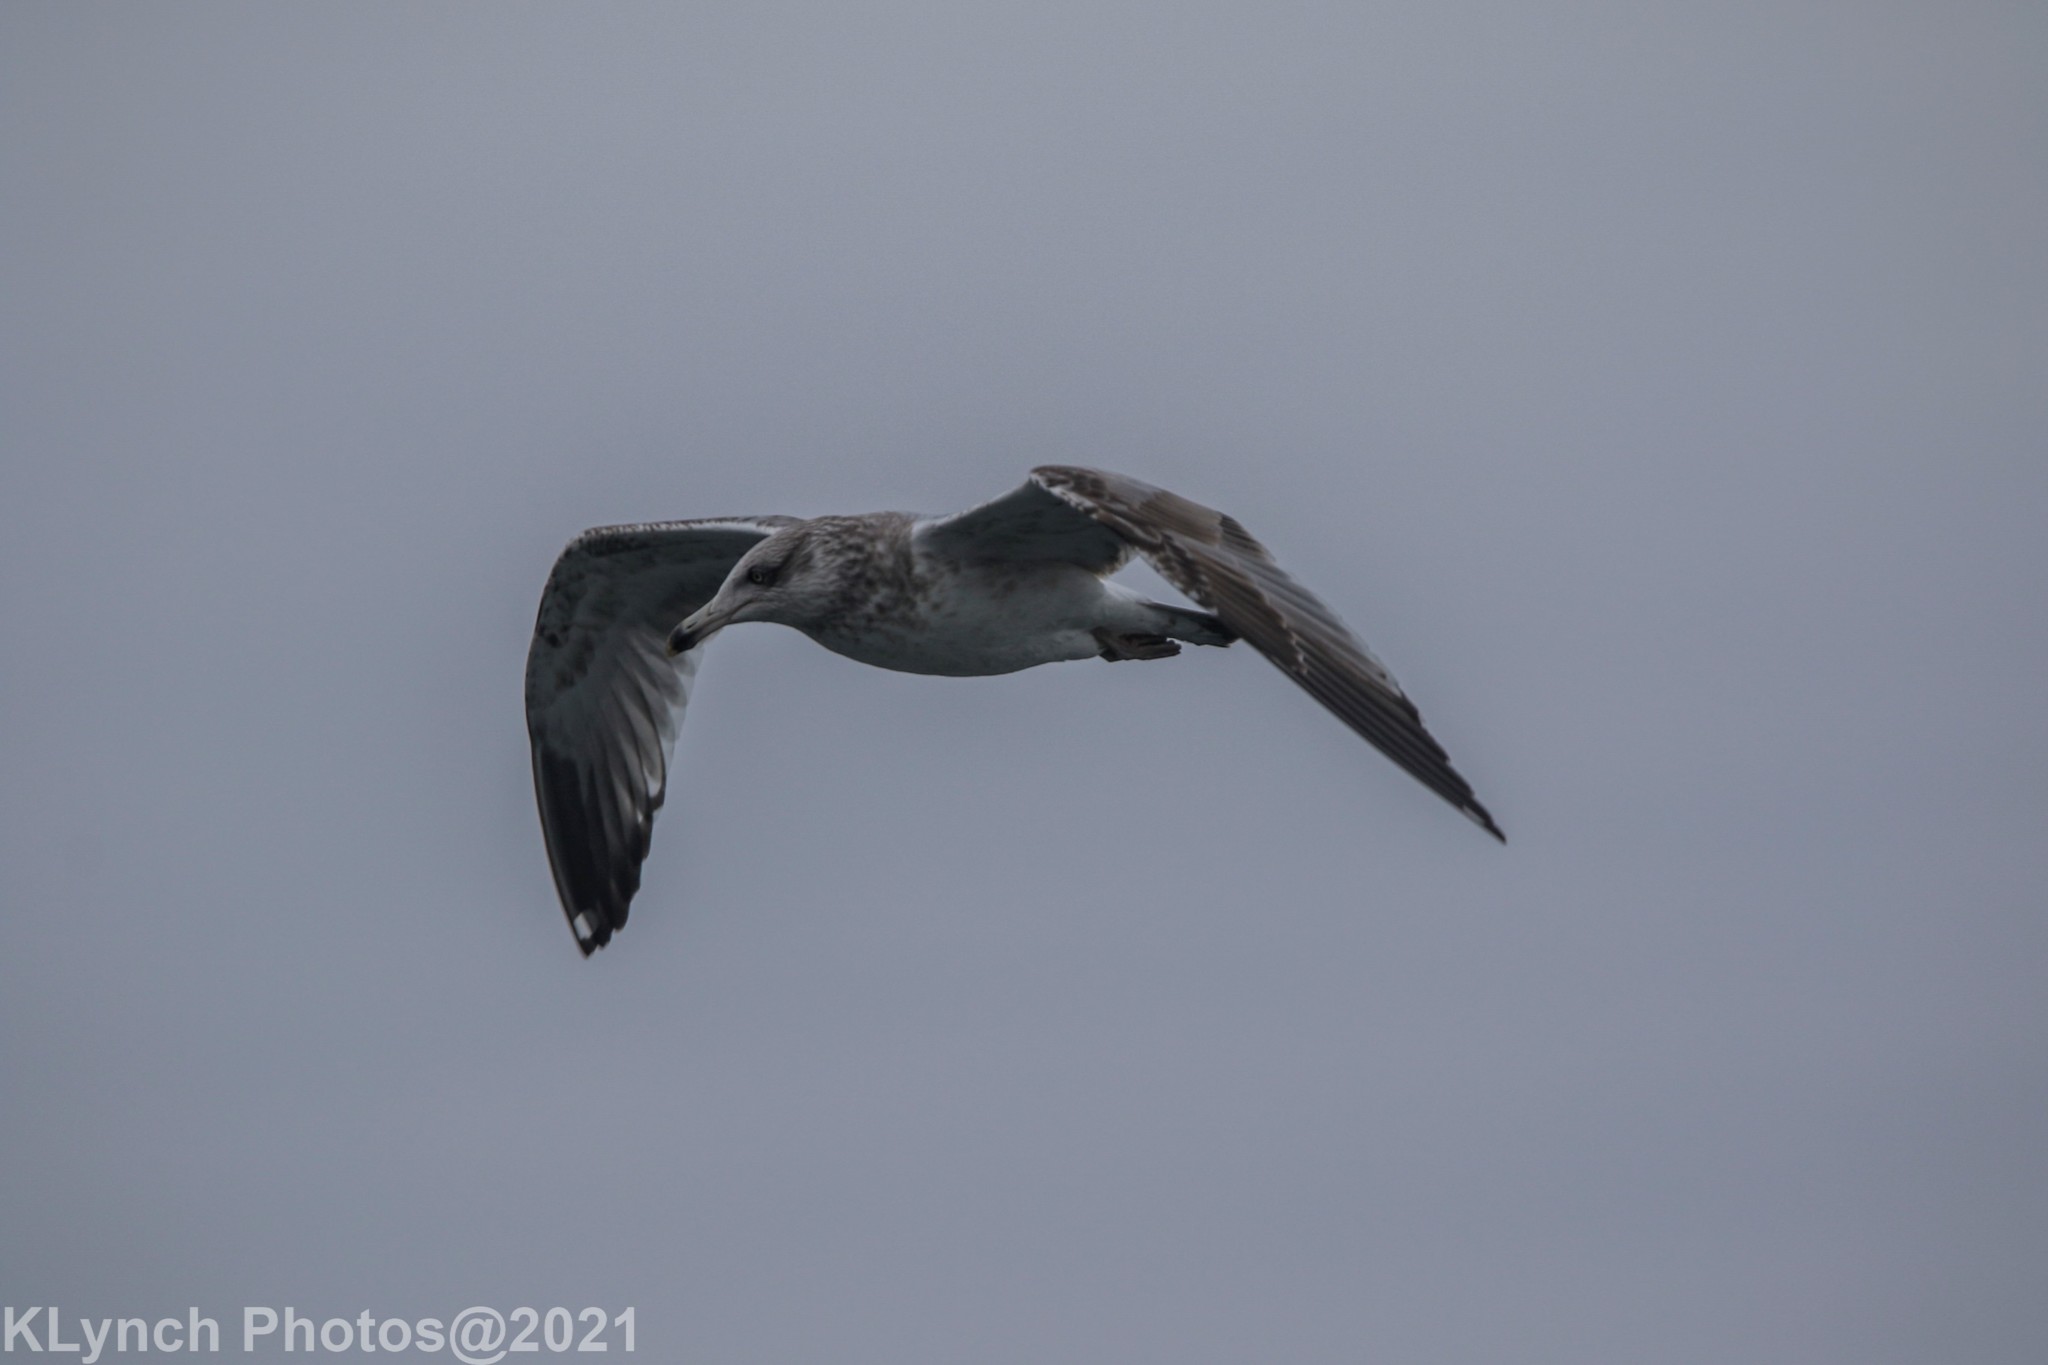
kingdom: Animalia
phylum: Chordata
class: Aves
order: Charadriiformes
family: Laridae
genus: Larus
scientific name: Larus argentatus
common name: Herring gull
